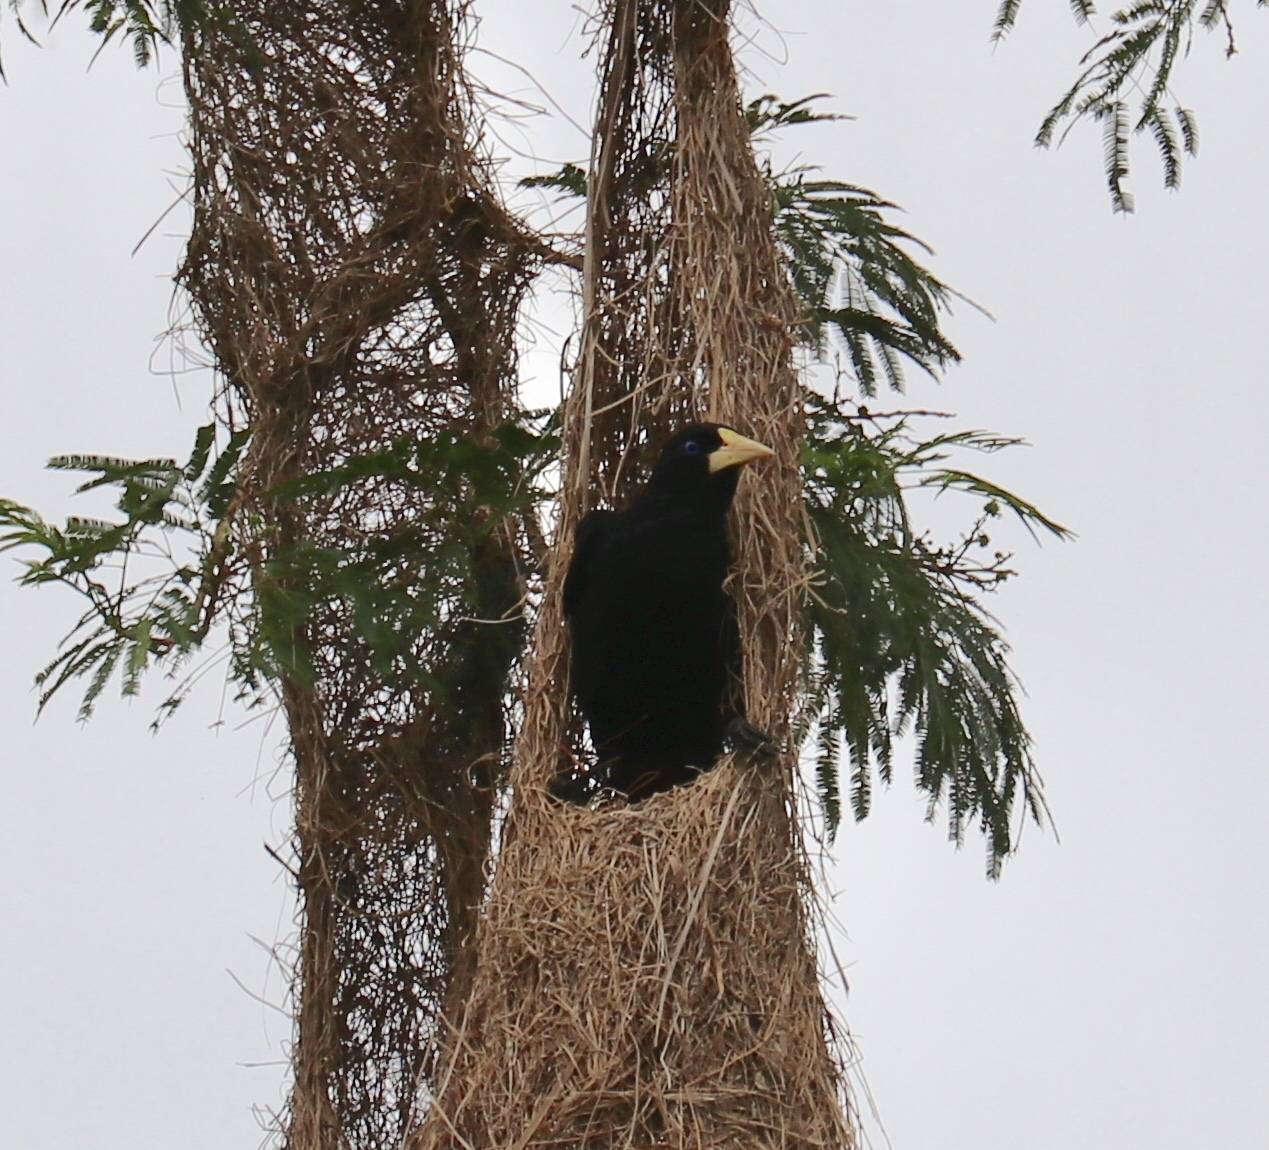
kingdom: Animalia
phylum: Chordata
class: Aves
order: Passeriformes
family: Icteridae
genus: Psarocolius
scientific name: Psarocolius decumanus
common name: Crested oropendola
